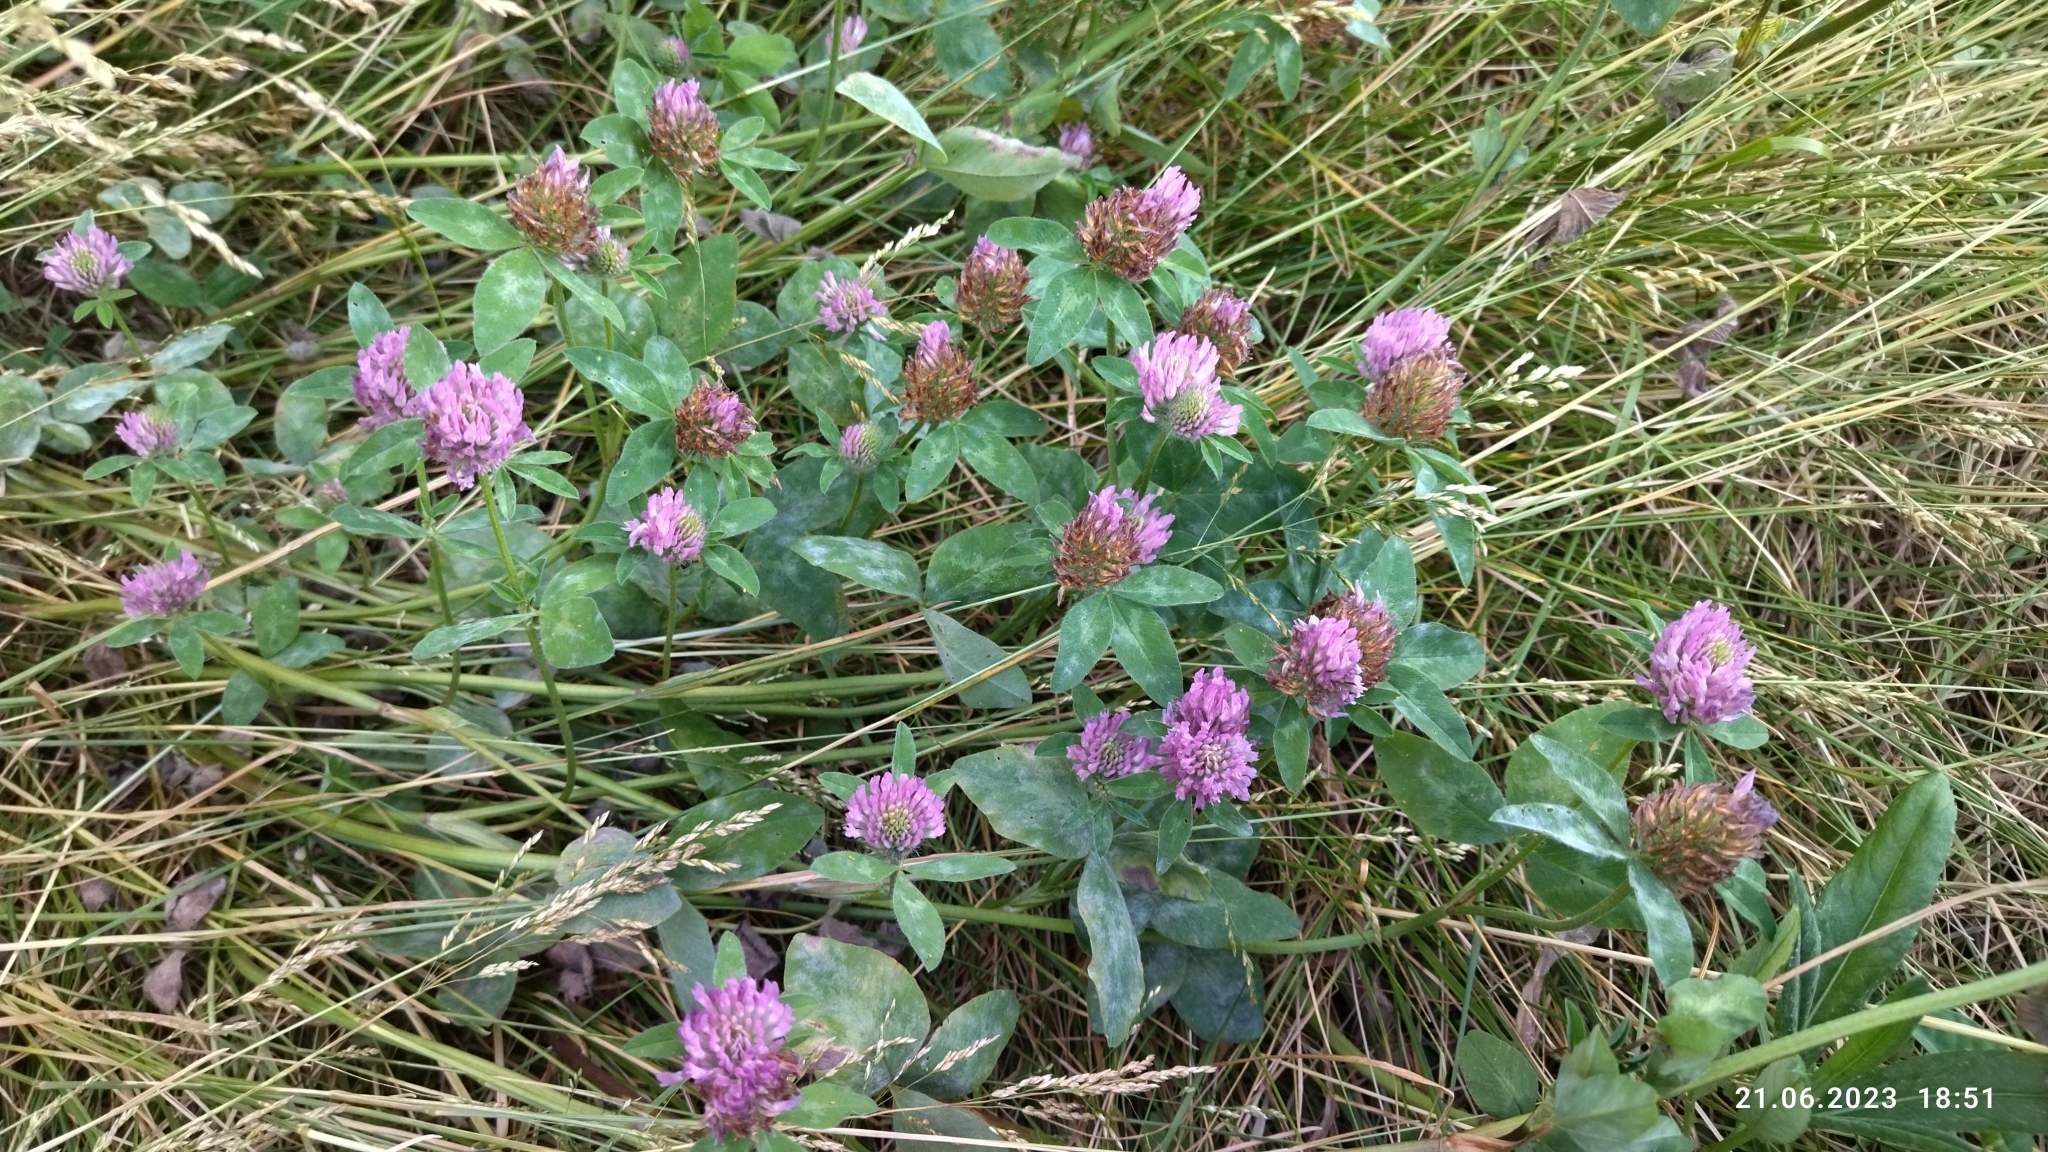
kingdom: Plantae
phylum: Tracheophyta
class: Magnoliopsida
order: Fabales
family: Fabaceae
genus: Trifolium
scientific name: Trifolium pratense
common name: Red clover
